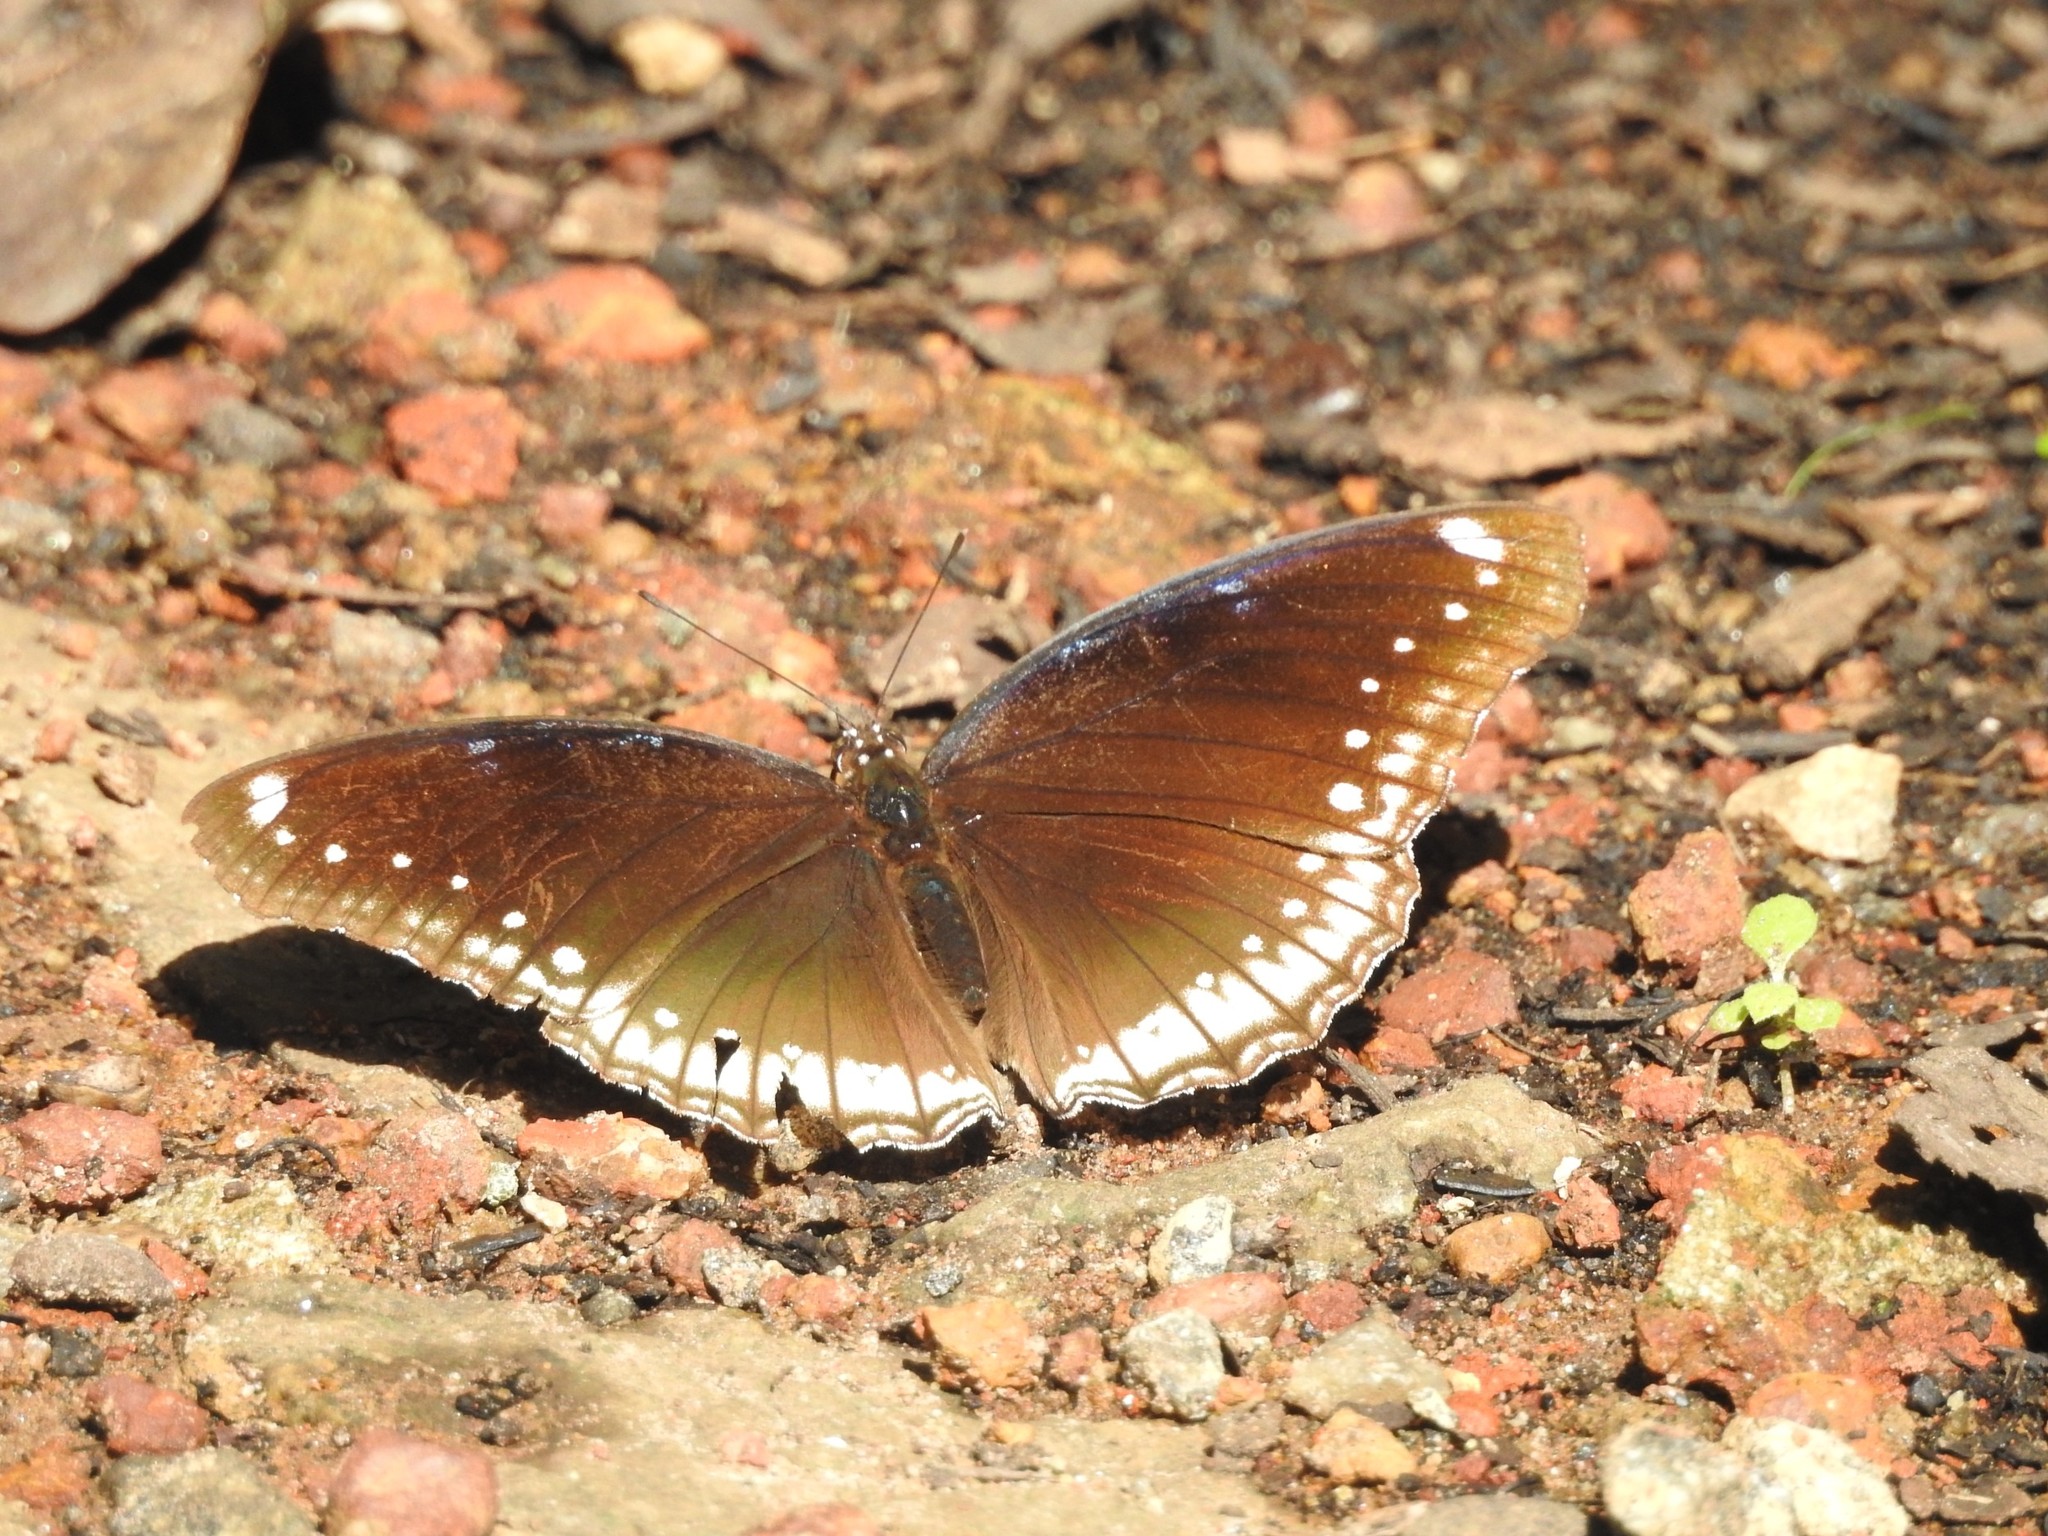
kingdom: Animalia
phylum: Arthropoda
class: Insecta
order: Lepidoptera
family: Nymphalidae
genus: Hypolimnas
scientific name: Hypolimnas bolina
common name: Great eggfly
